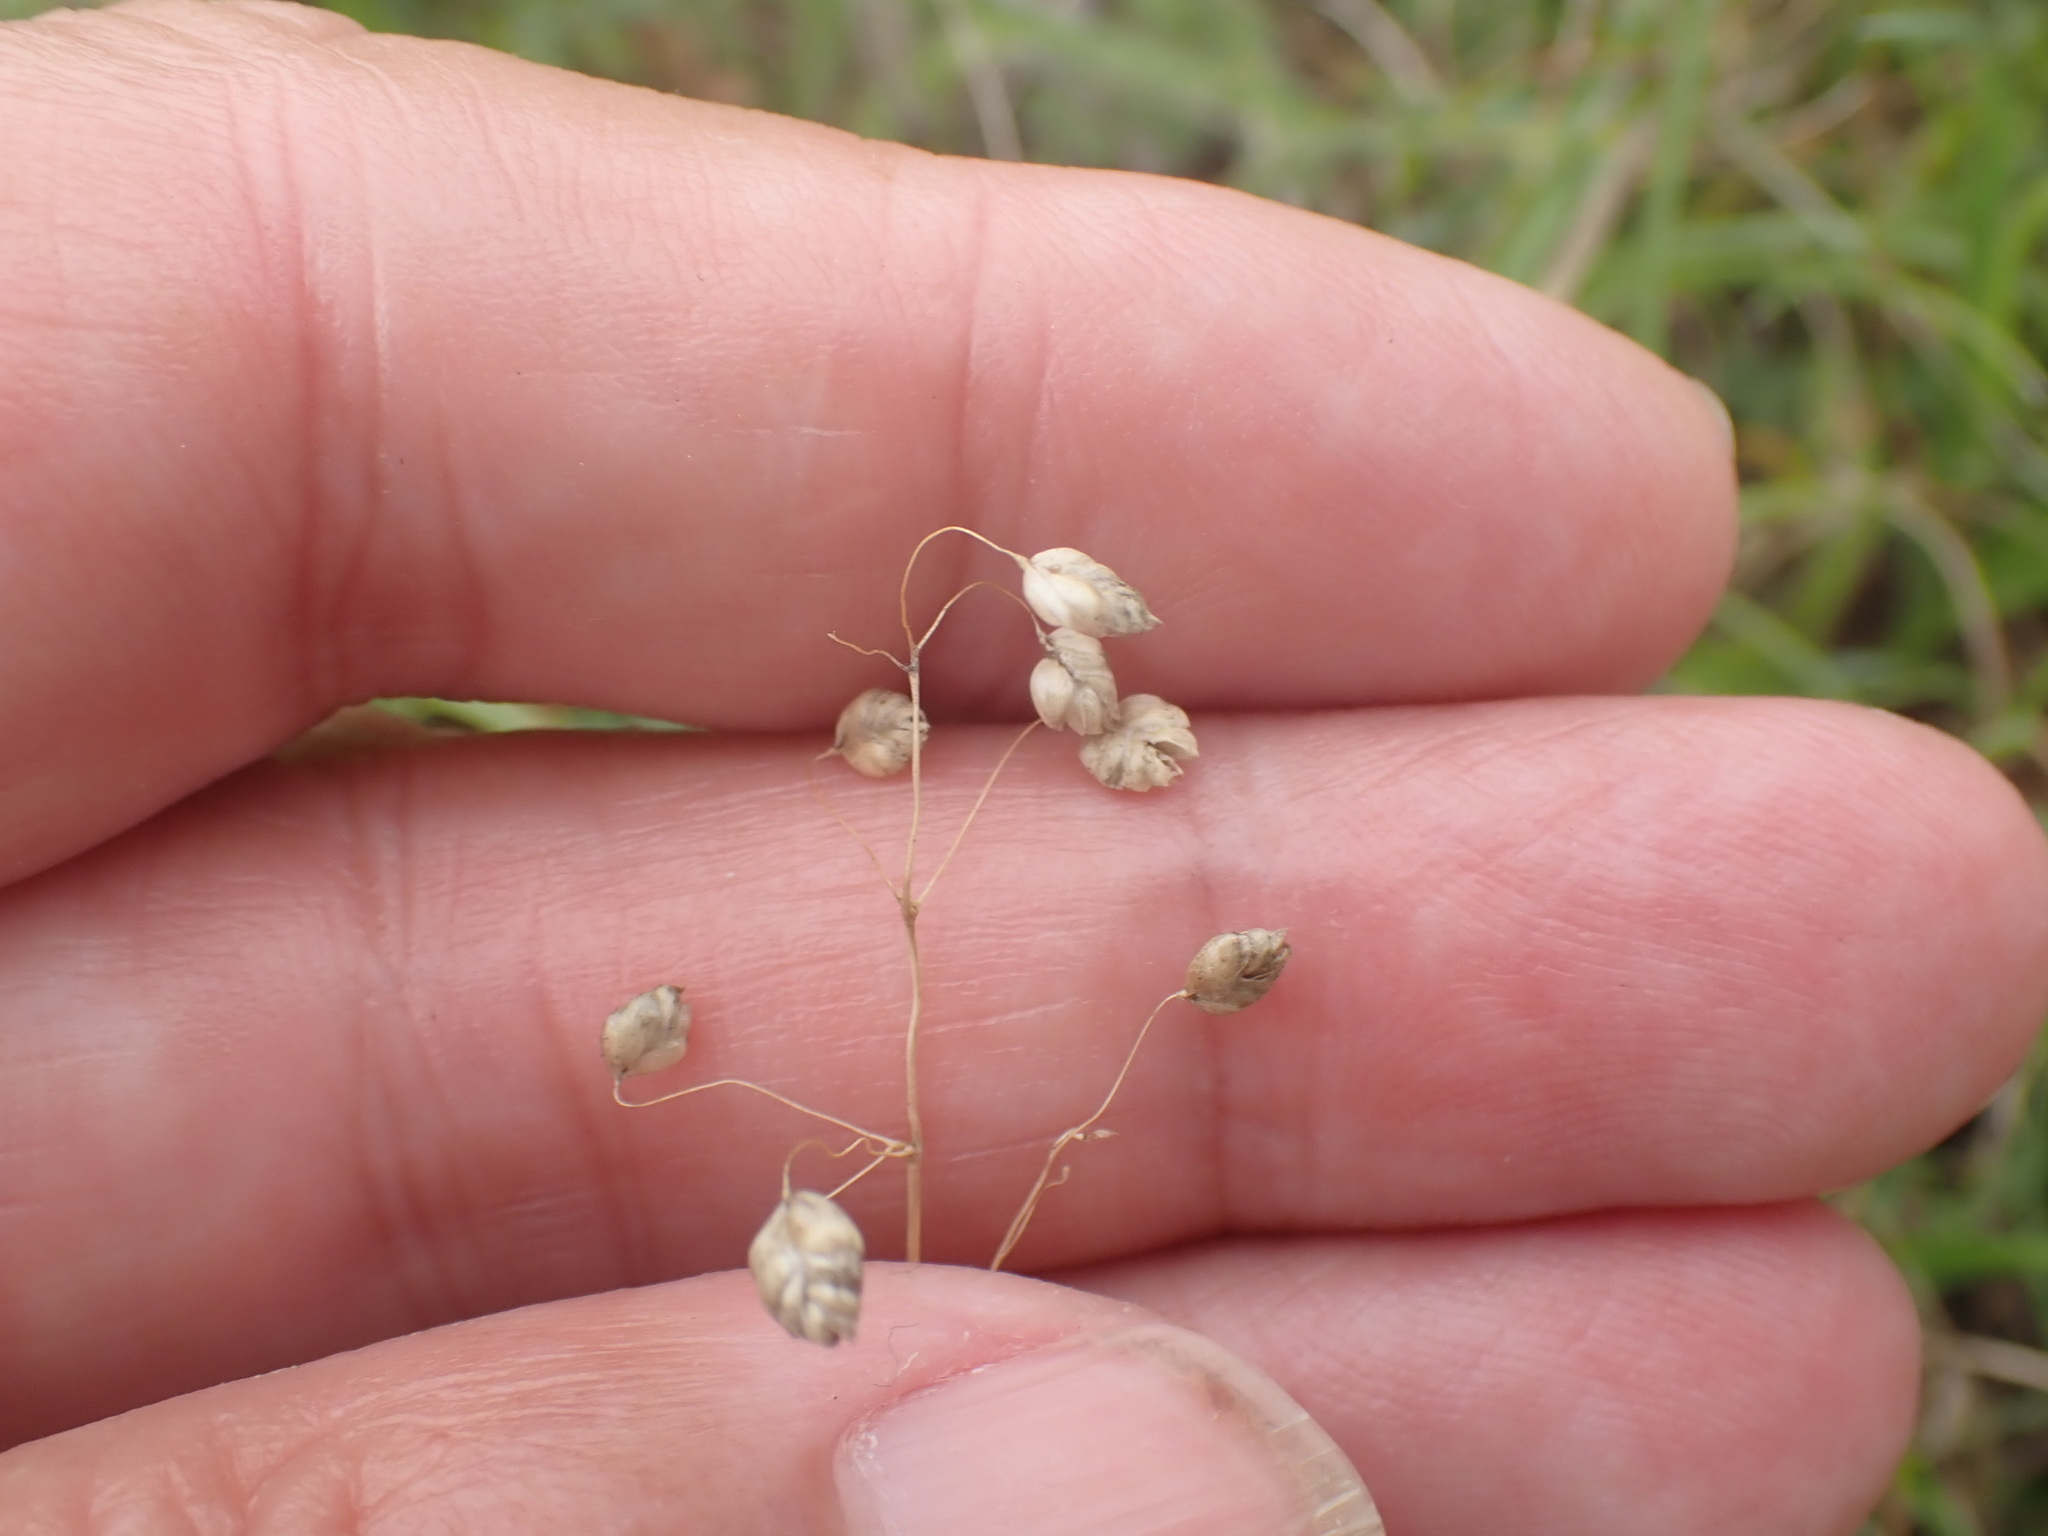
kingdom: Plantae
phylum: Tracheophyta
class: Liliopsida
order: Poales
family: Poaceae
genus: Briza
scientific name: Briza media
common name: Quaking grass
